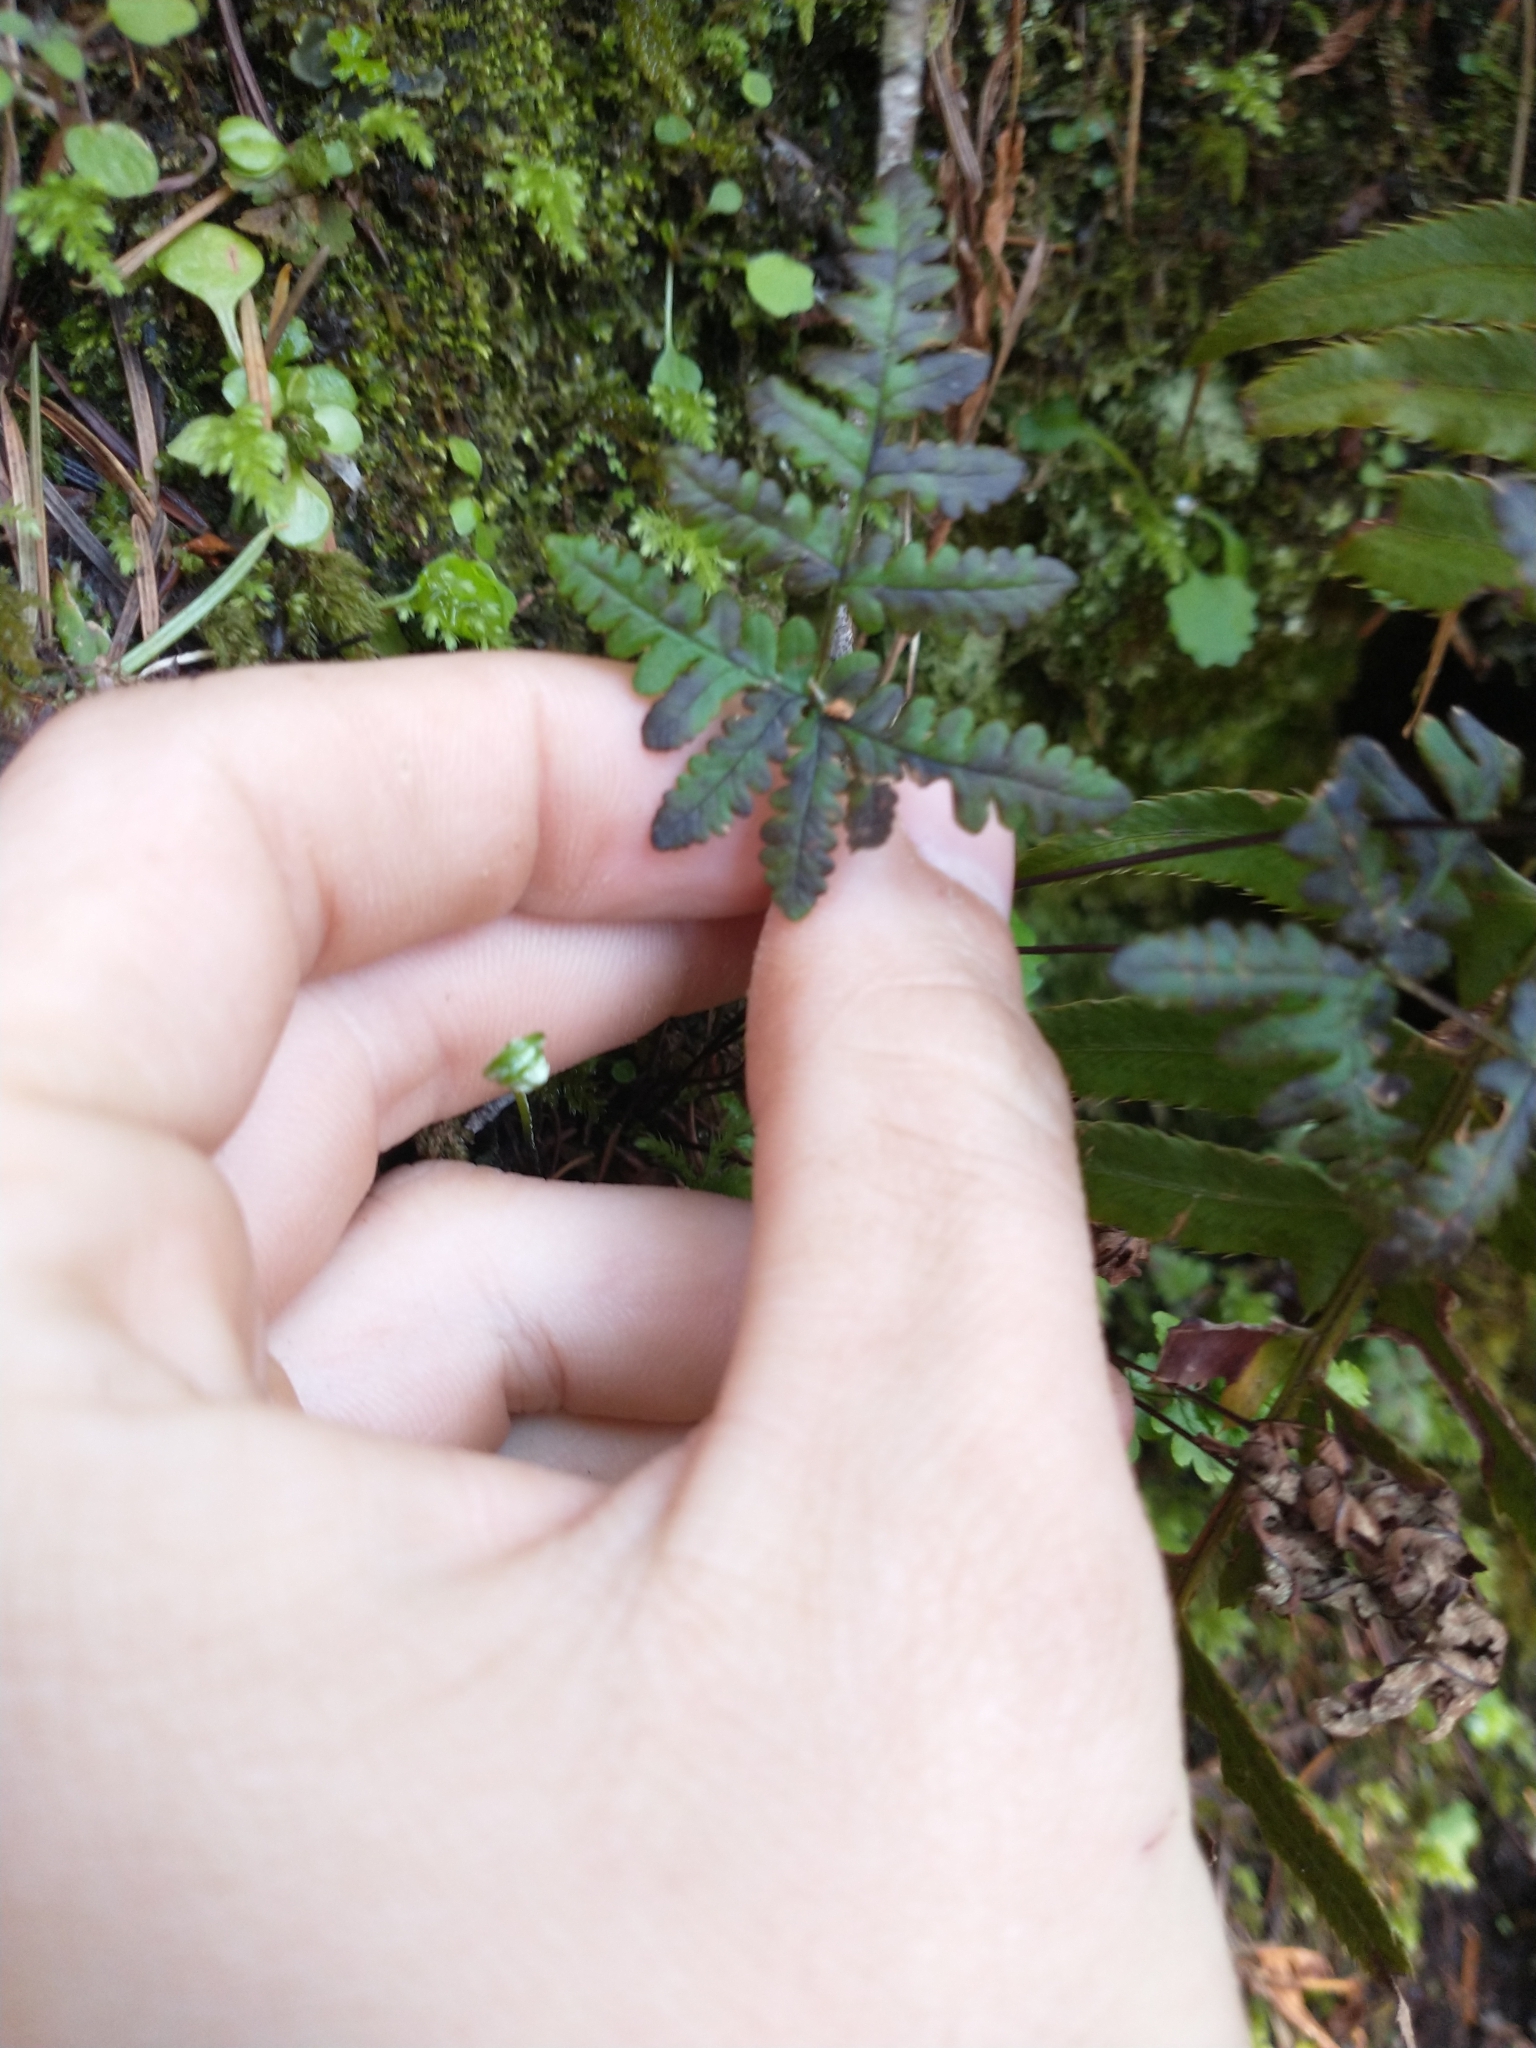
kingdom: Plantae
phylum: Tracheophyta
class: Polypodiopsida
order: Polypodiales
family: Pteridaceae
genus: Pentagramma
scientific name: Pentagramma triangularis
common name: Gold fern
